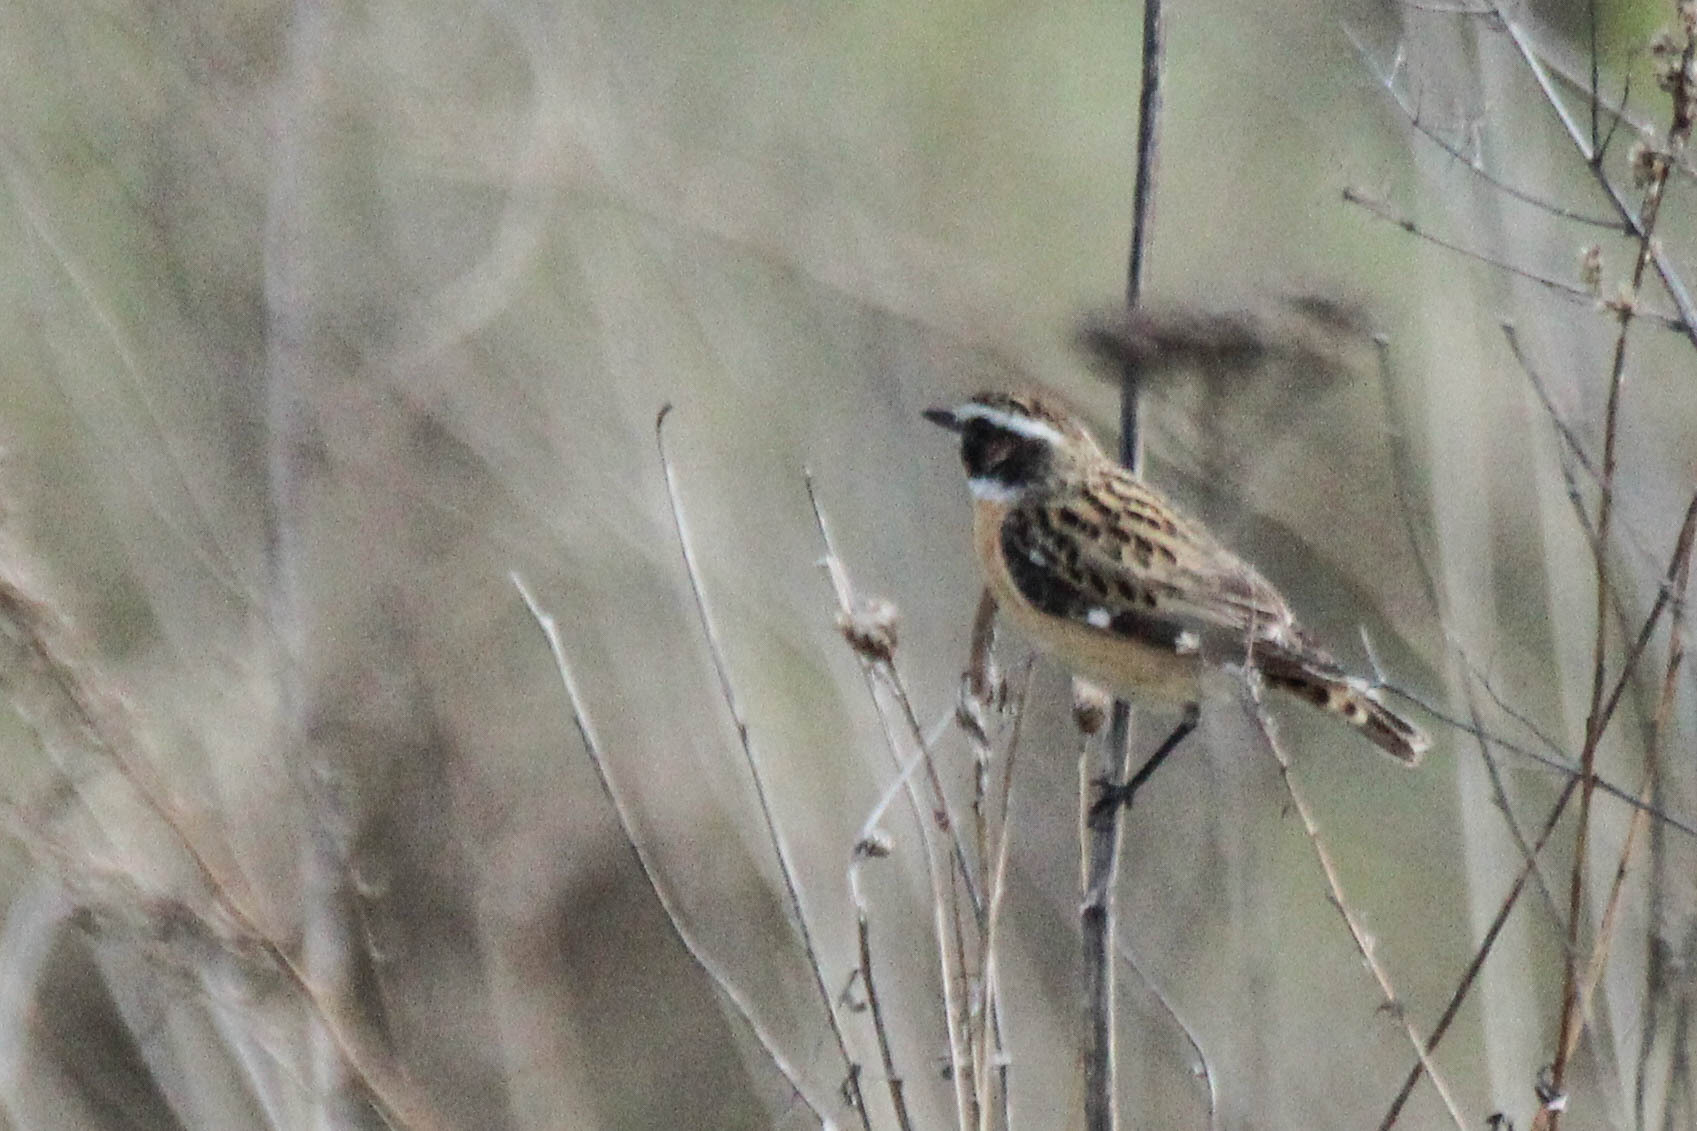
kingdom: Animalia
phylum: Chordata
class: Aves
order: Passeriformes
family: Muscicapidae
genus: Saxicola
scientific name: Saxicola rubetra
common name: Whinchat
